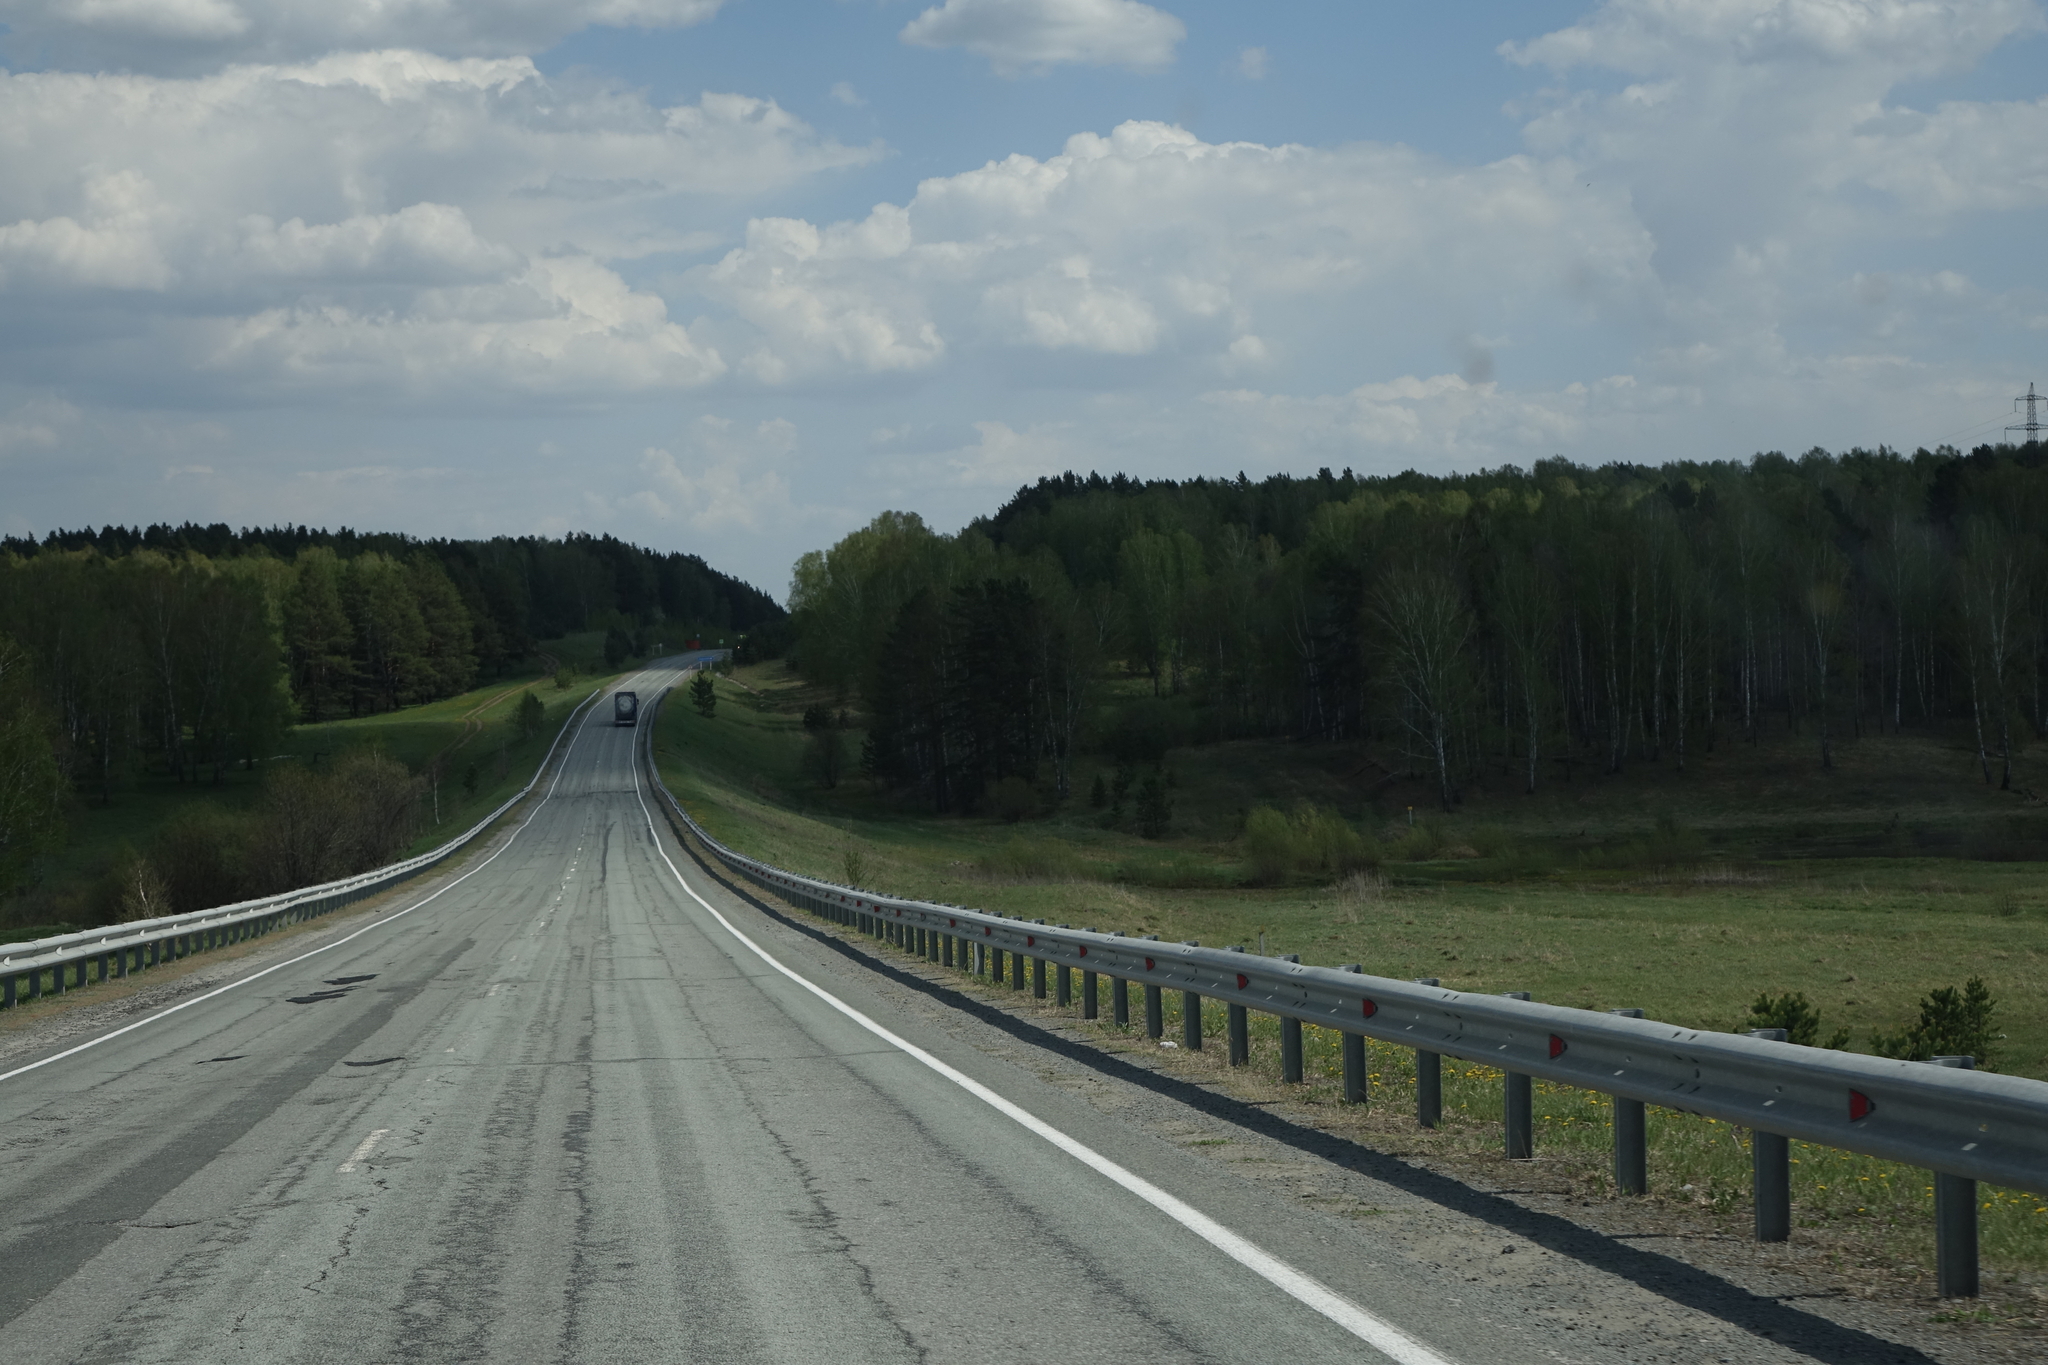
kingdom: Plantae
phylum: Tracheophyta
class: Magnoliopsida
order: Fagales
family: Betulaceae
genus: Betula
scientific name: Betula pendula
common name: Silver birch
